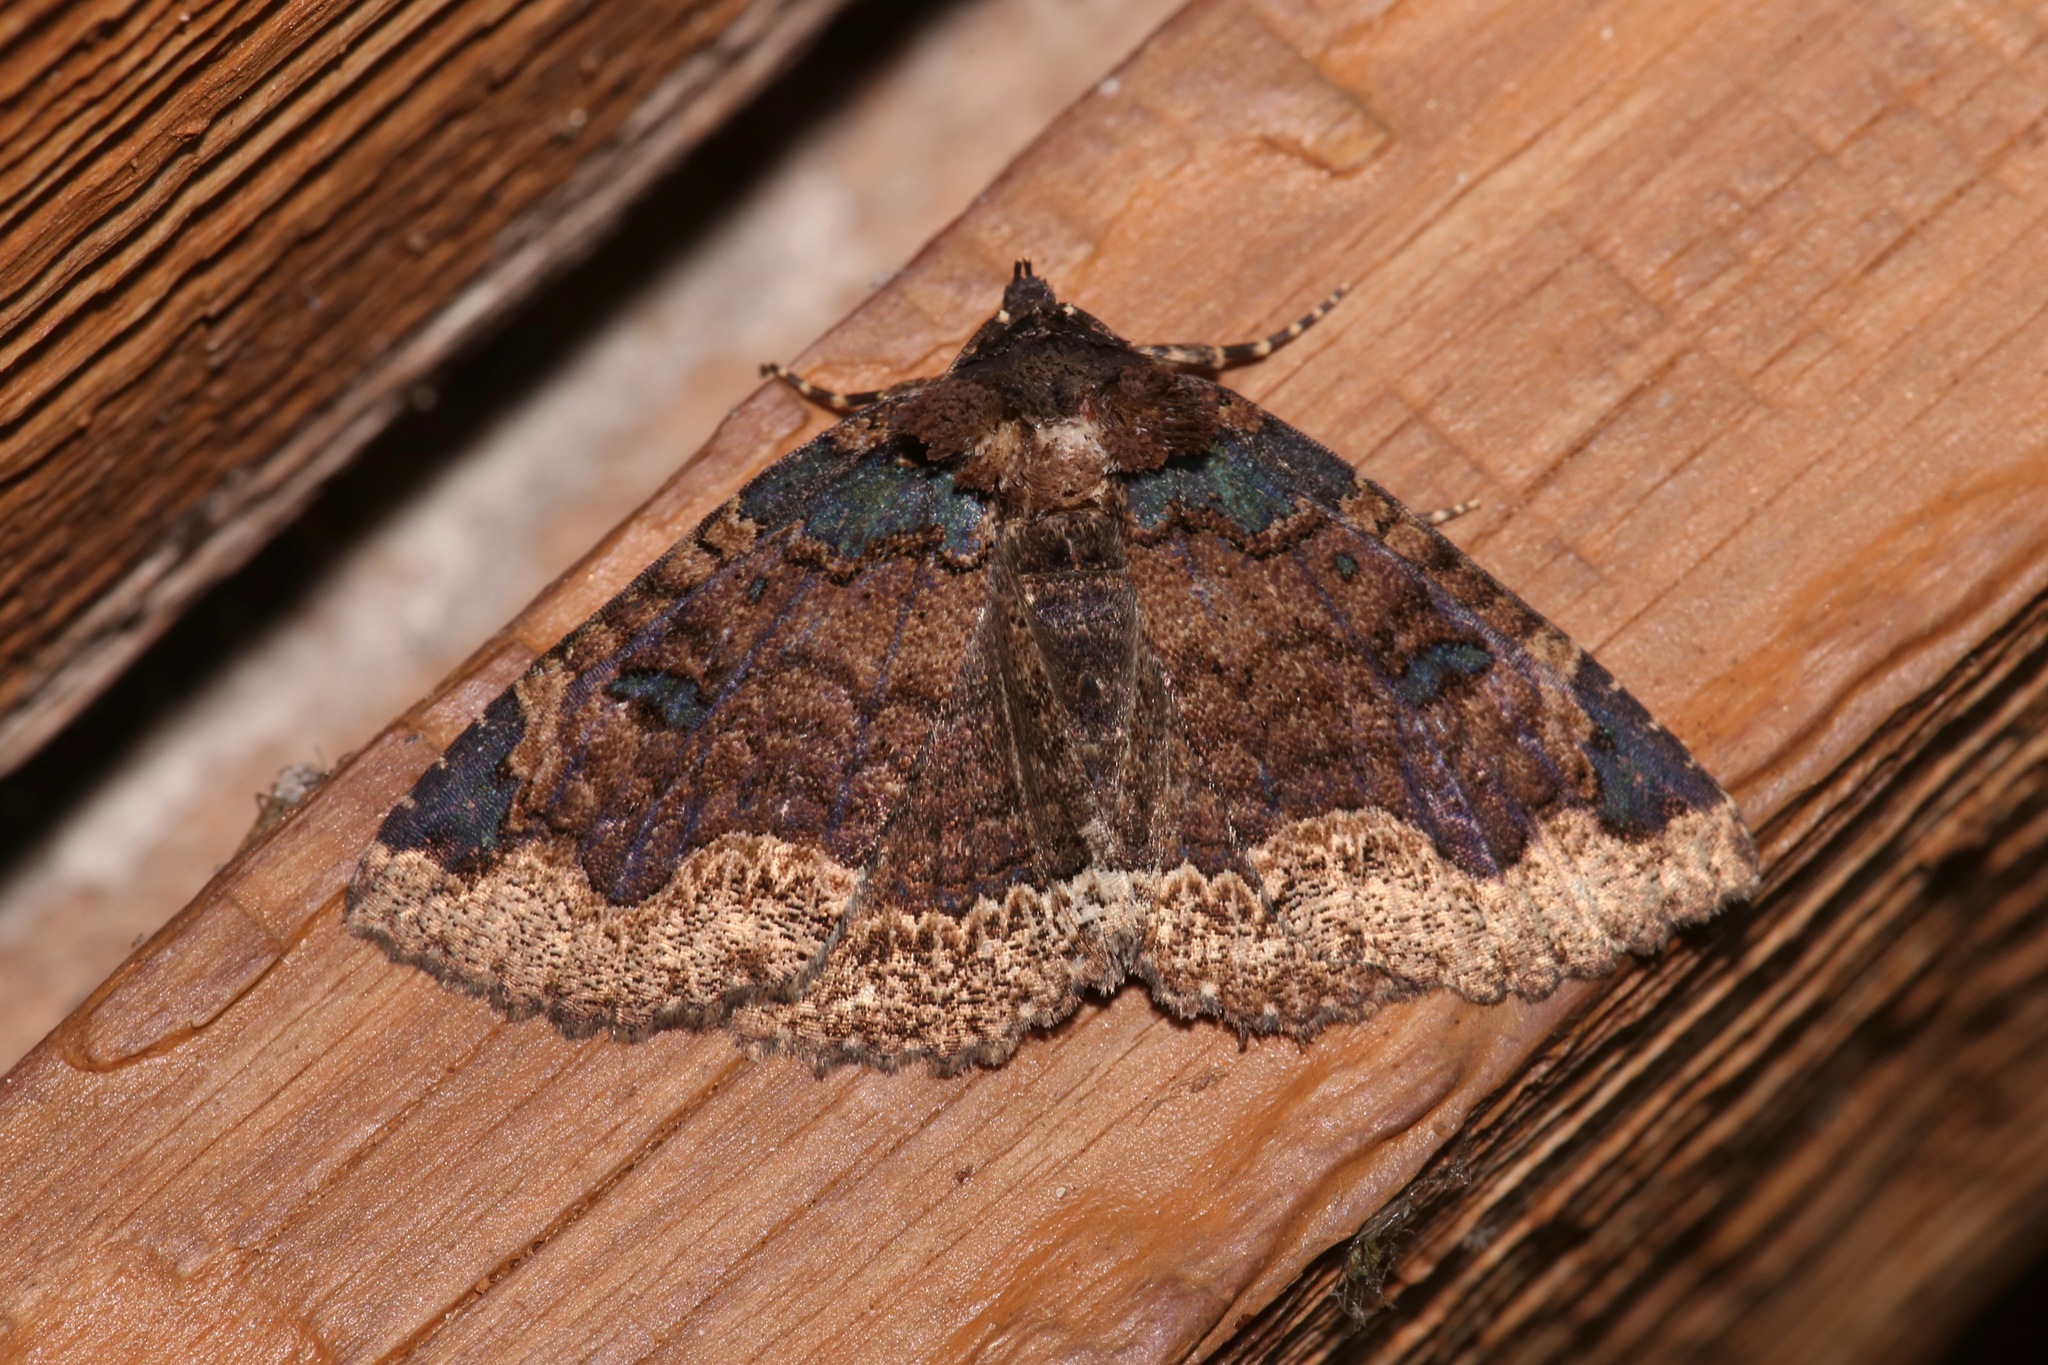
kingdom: Animalia
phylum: Arthropoda
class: Insecta
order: Lepidoptera
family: Erebidae
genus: Zale
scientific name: Zale horrida
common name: Horrid zale moth
